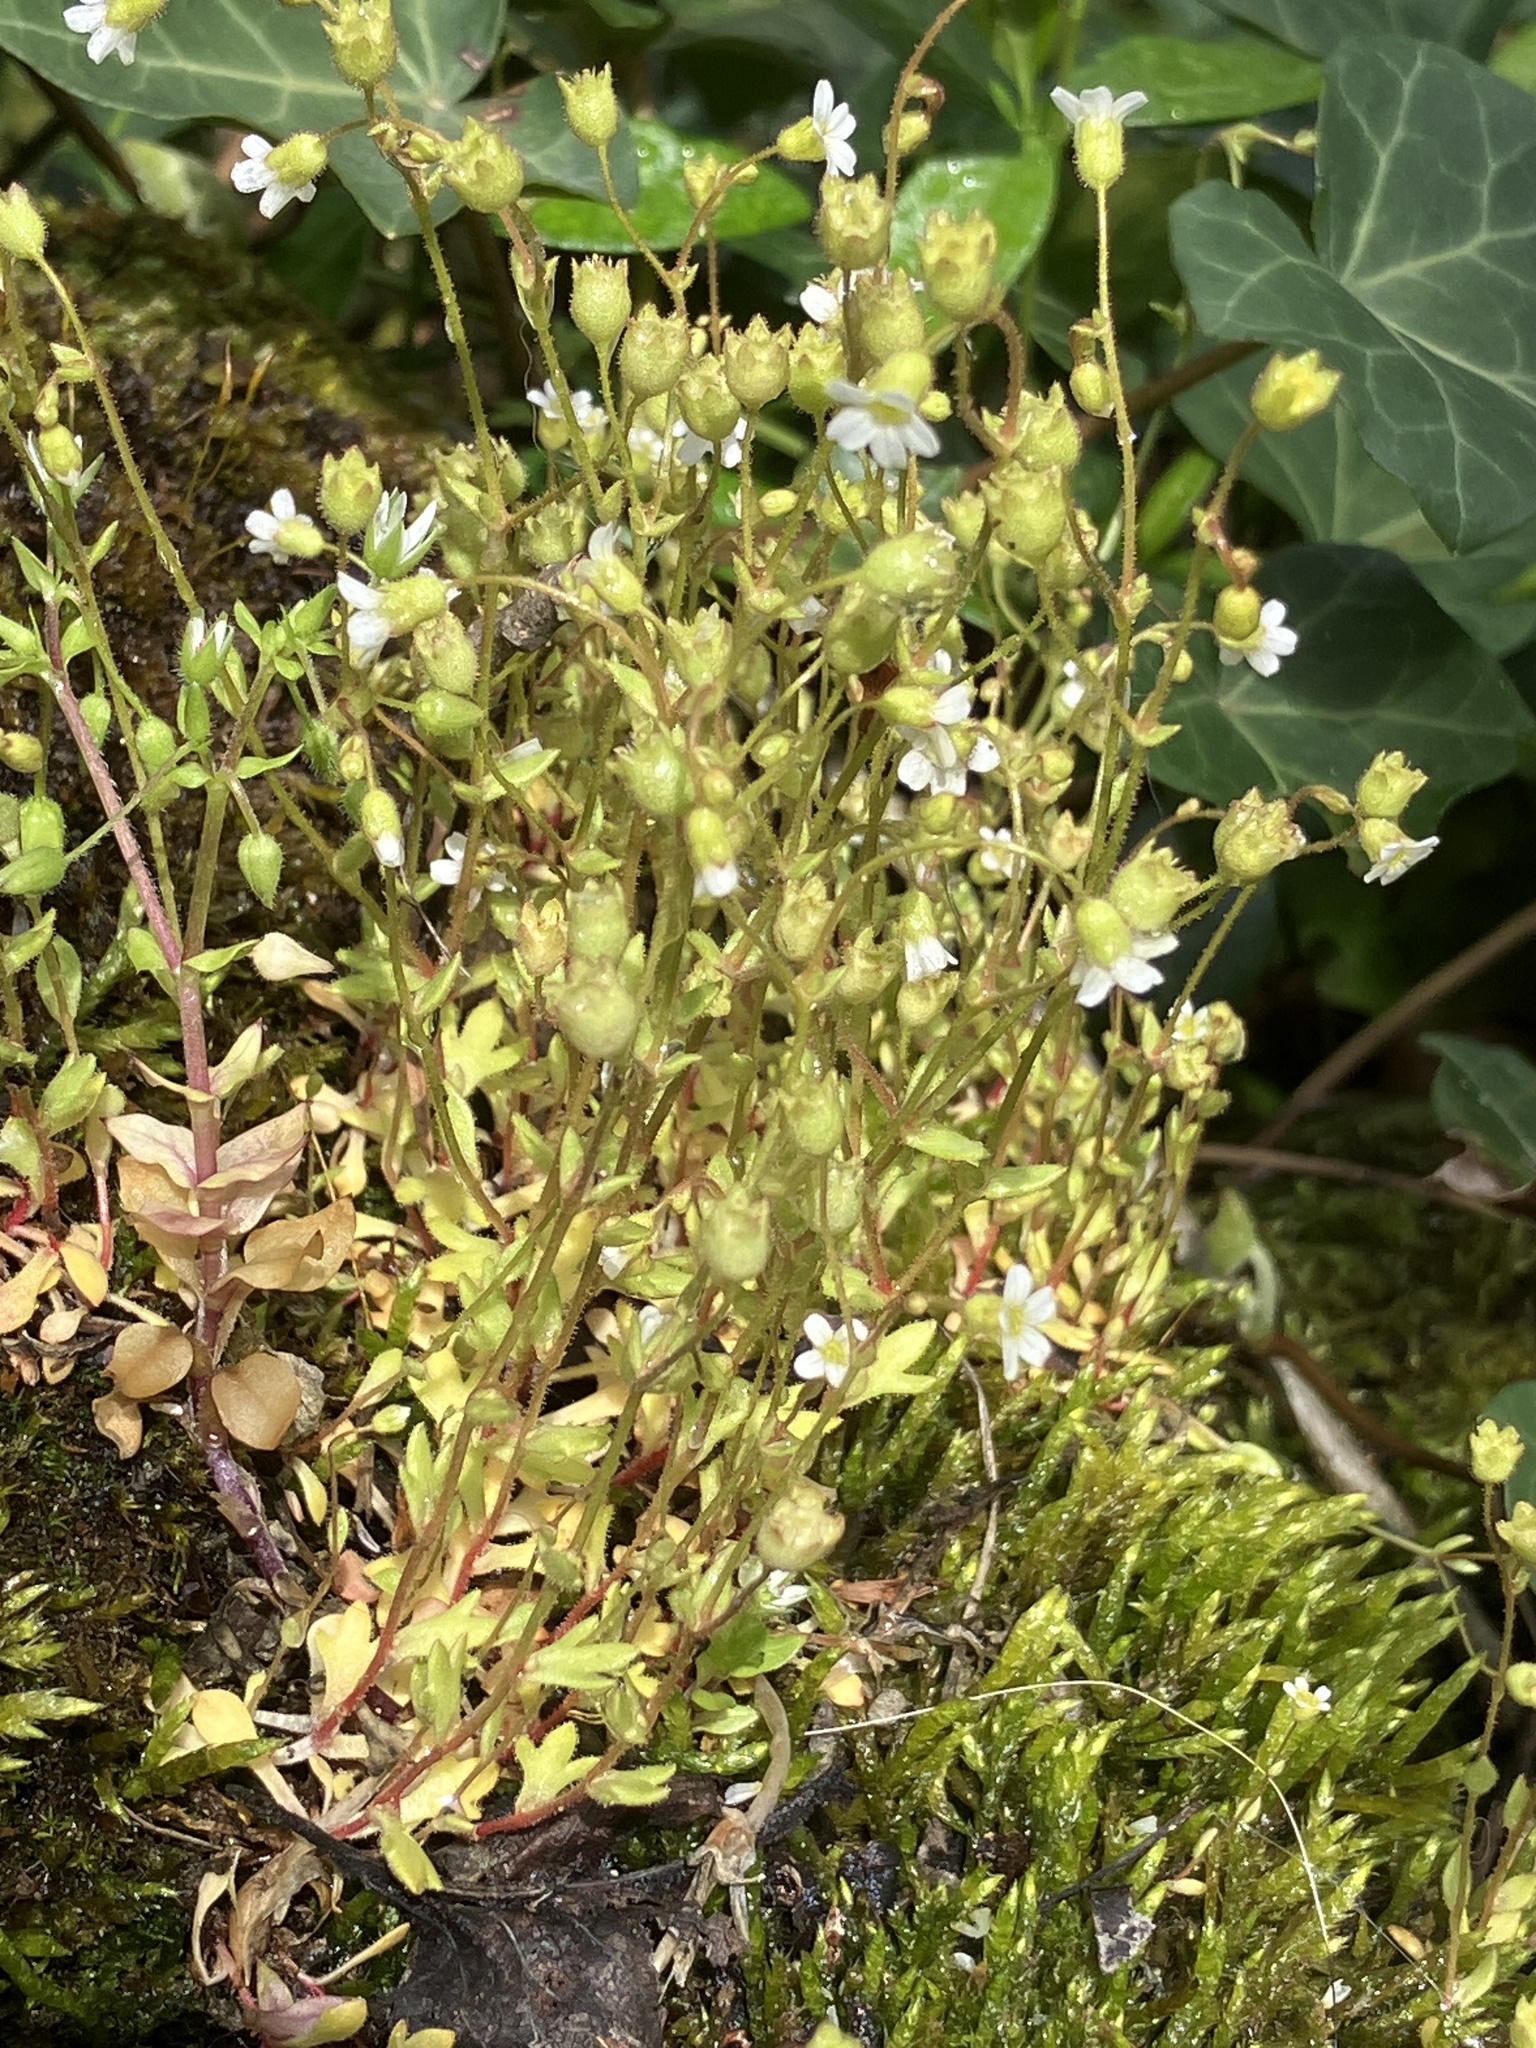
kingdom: Plantae
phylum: Tracheophyta
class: Magnoliopsida
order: Saxifragales
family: Saxifragaceae
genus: Saxifraga
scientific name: Saxifraga tridactylites
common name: Rue-leaved saxifrage
